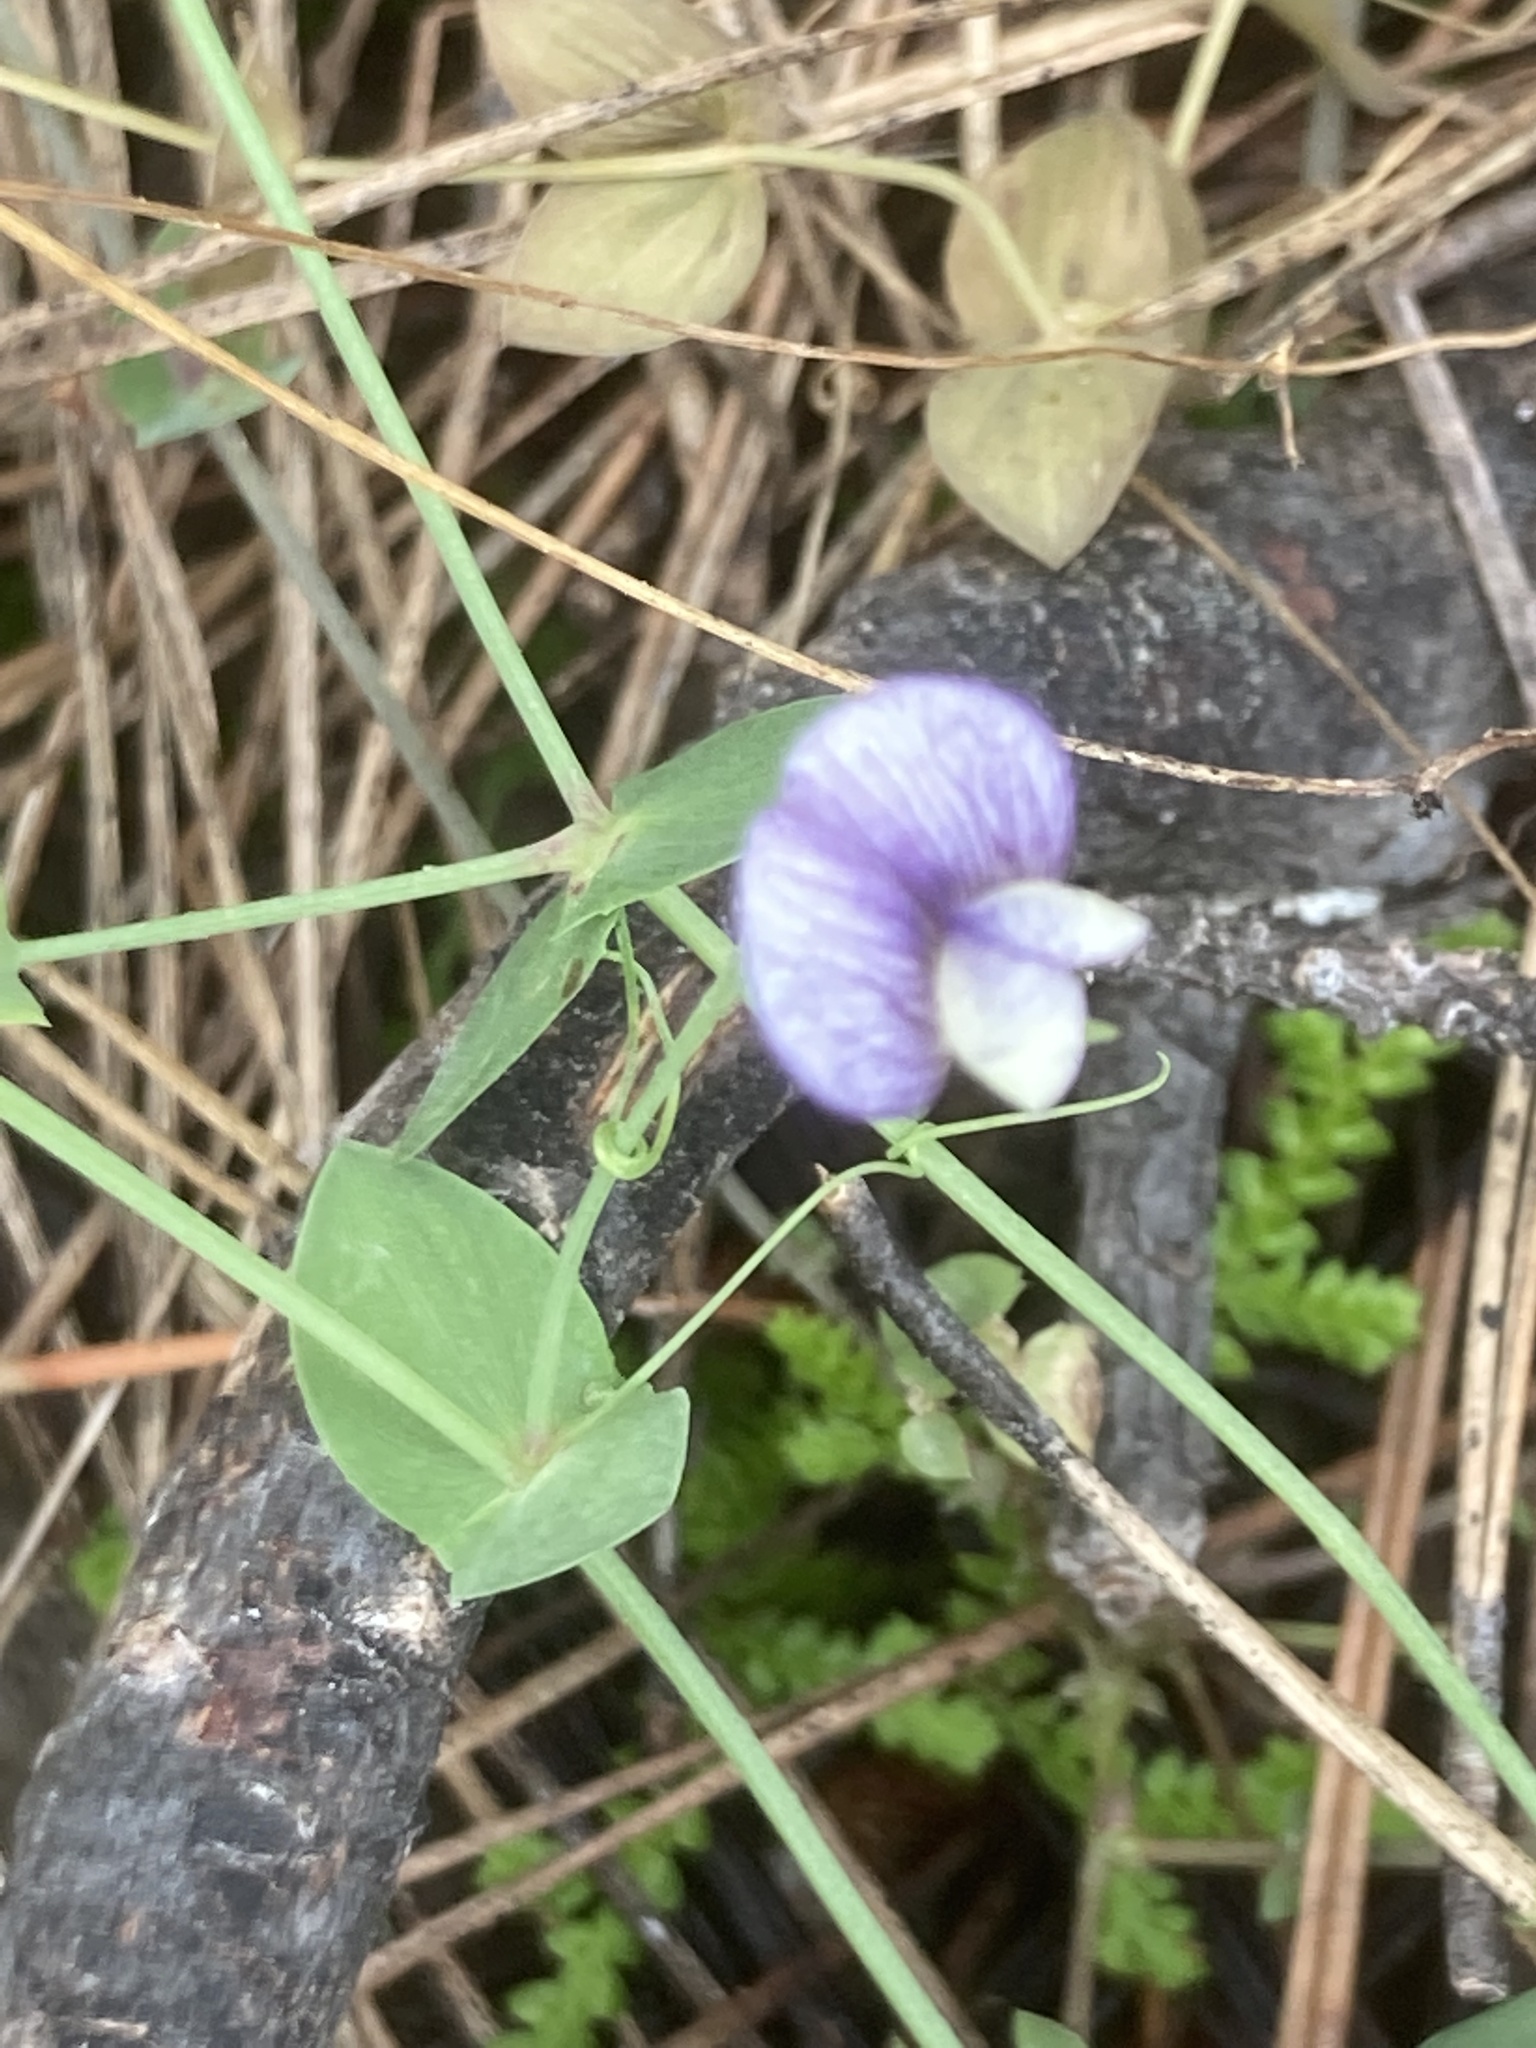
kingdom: Plantae
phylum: Tracheophyta
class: Magnoliopsida
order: Fabales
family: Fabaceae
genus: Lathyrus
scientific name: Lathyrus aphaca
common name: Yellow vetchling
